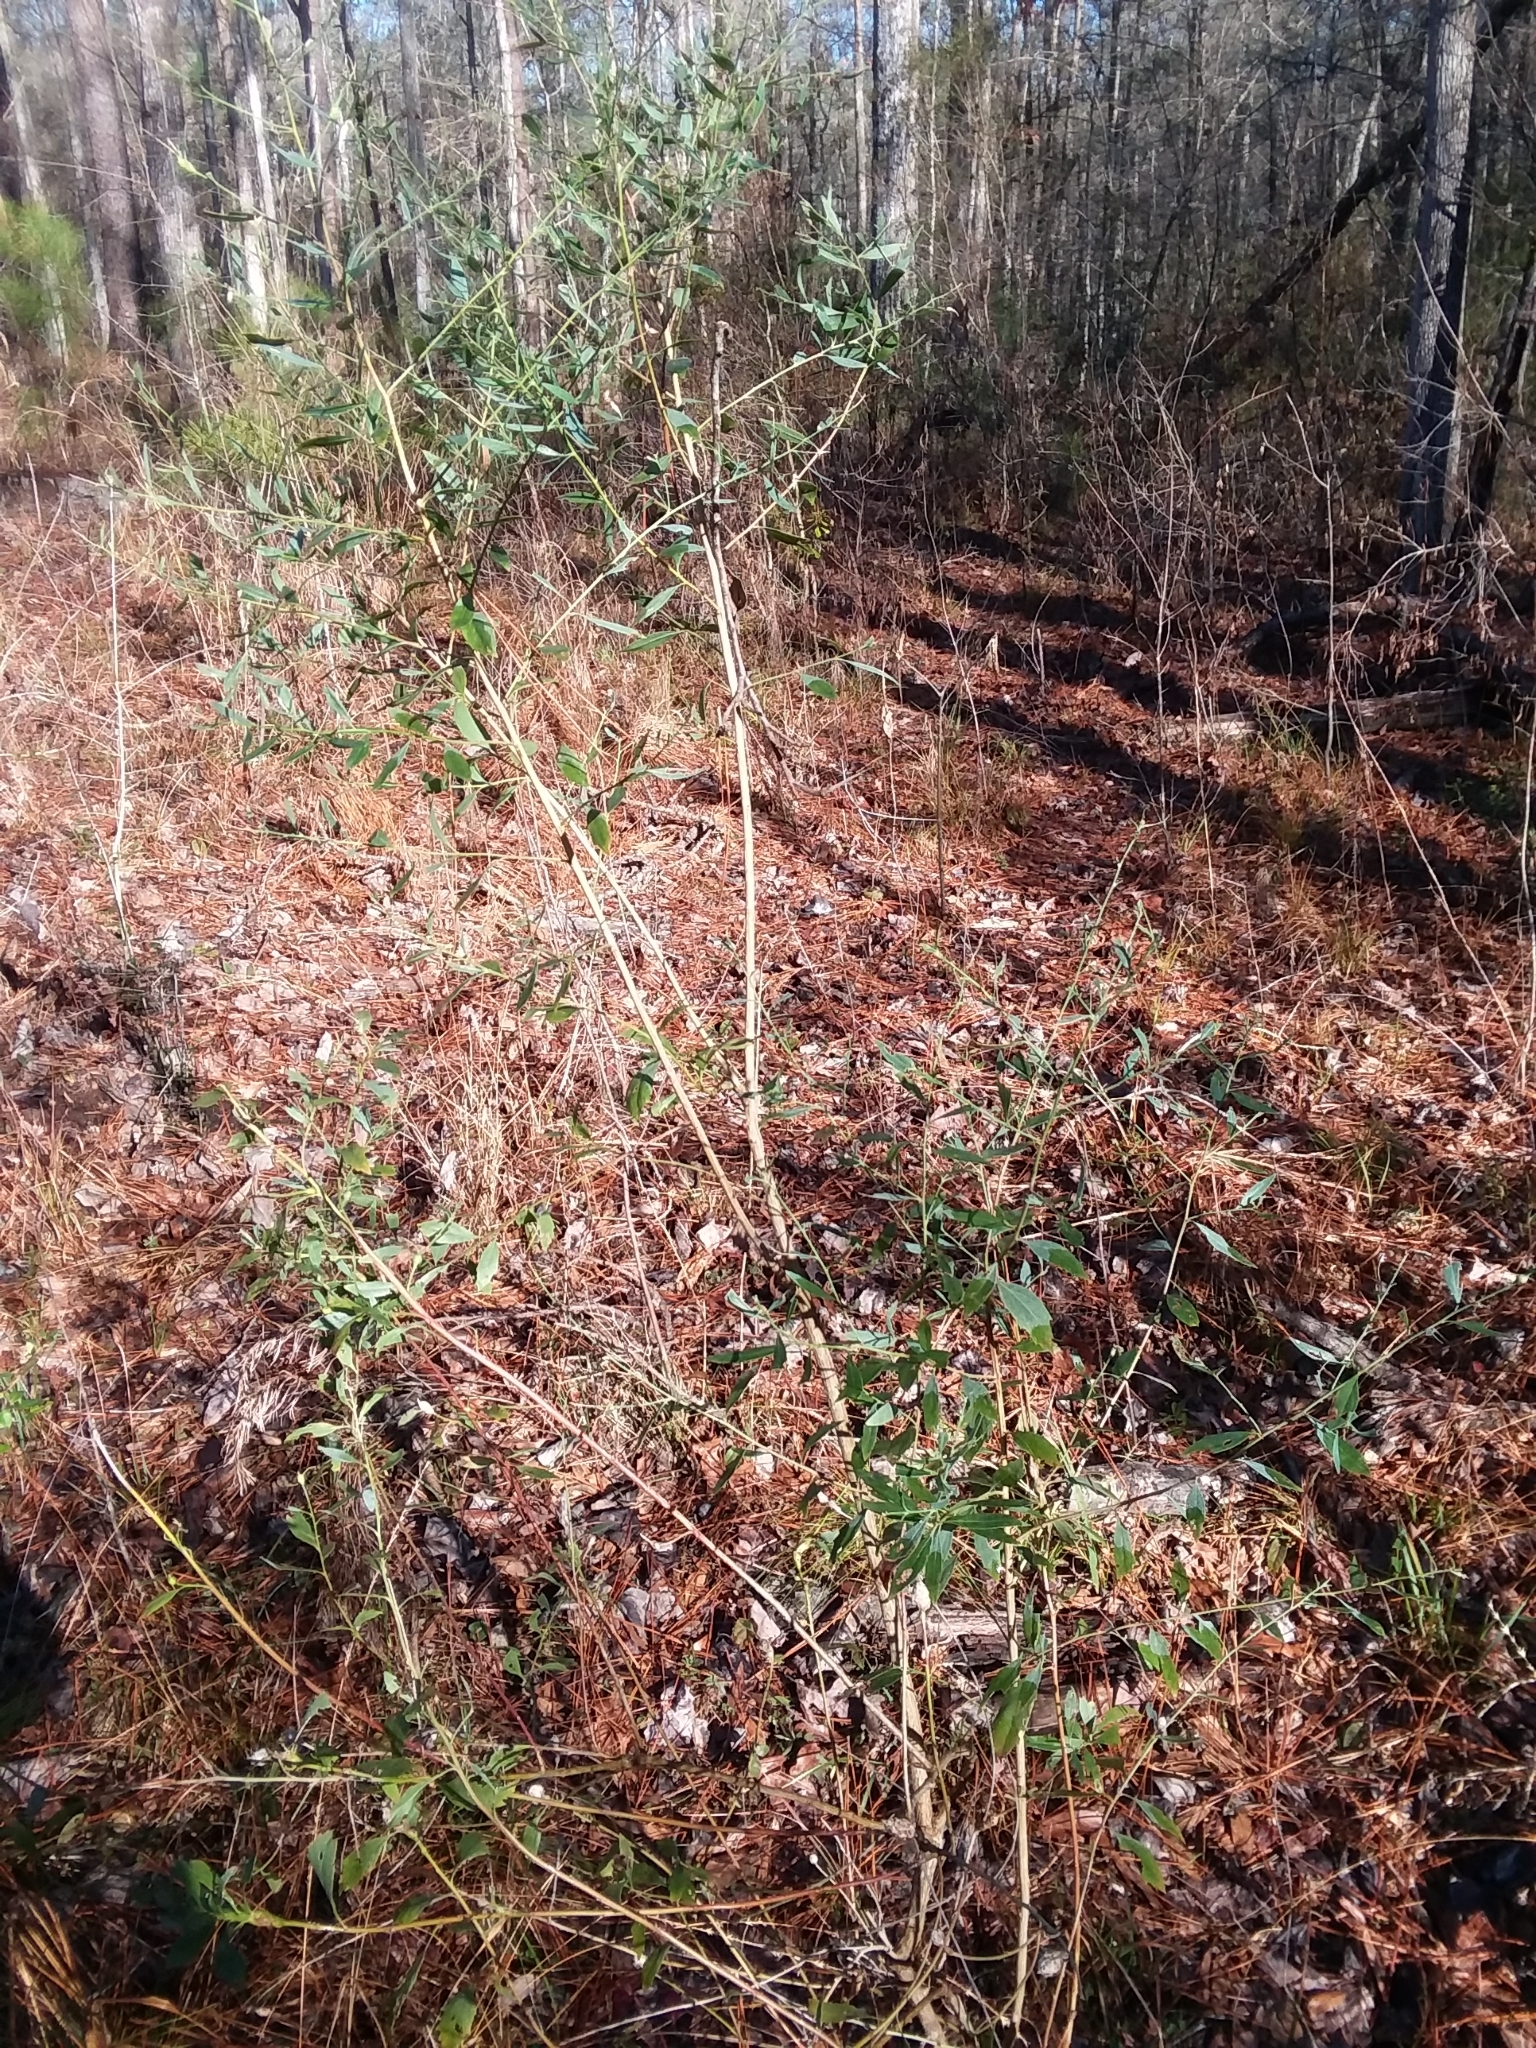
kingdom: Plantae
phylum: Tracheophyta
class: Magnoliopsida
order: Asterales
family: Asteraceae
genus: Baccharis
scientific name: Baccharis halimifolia
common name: Eastern baccharis
